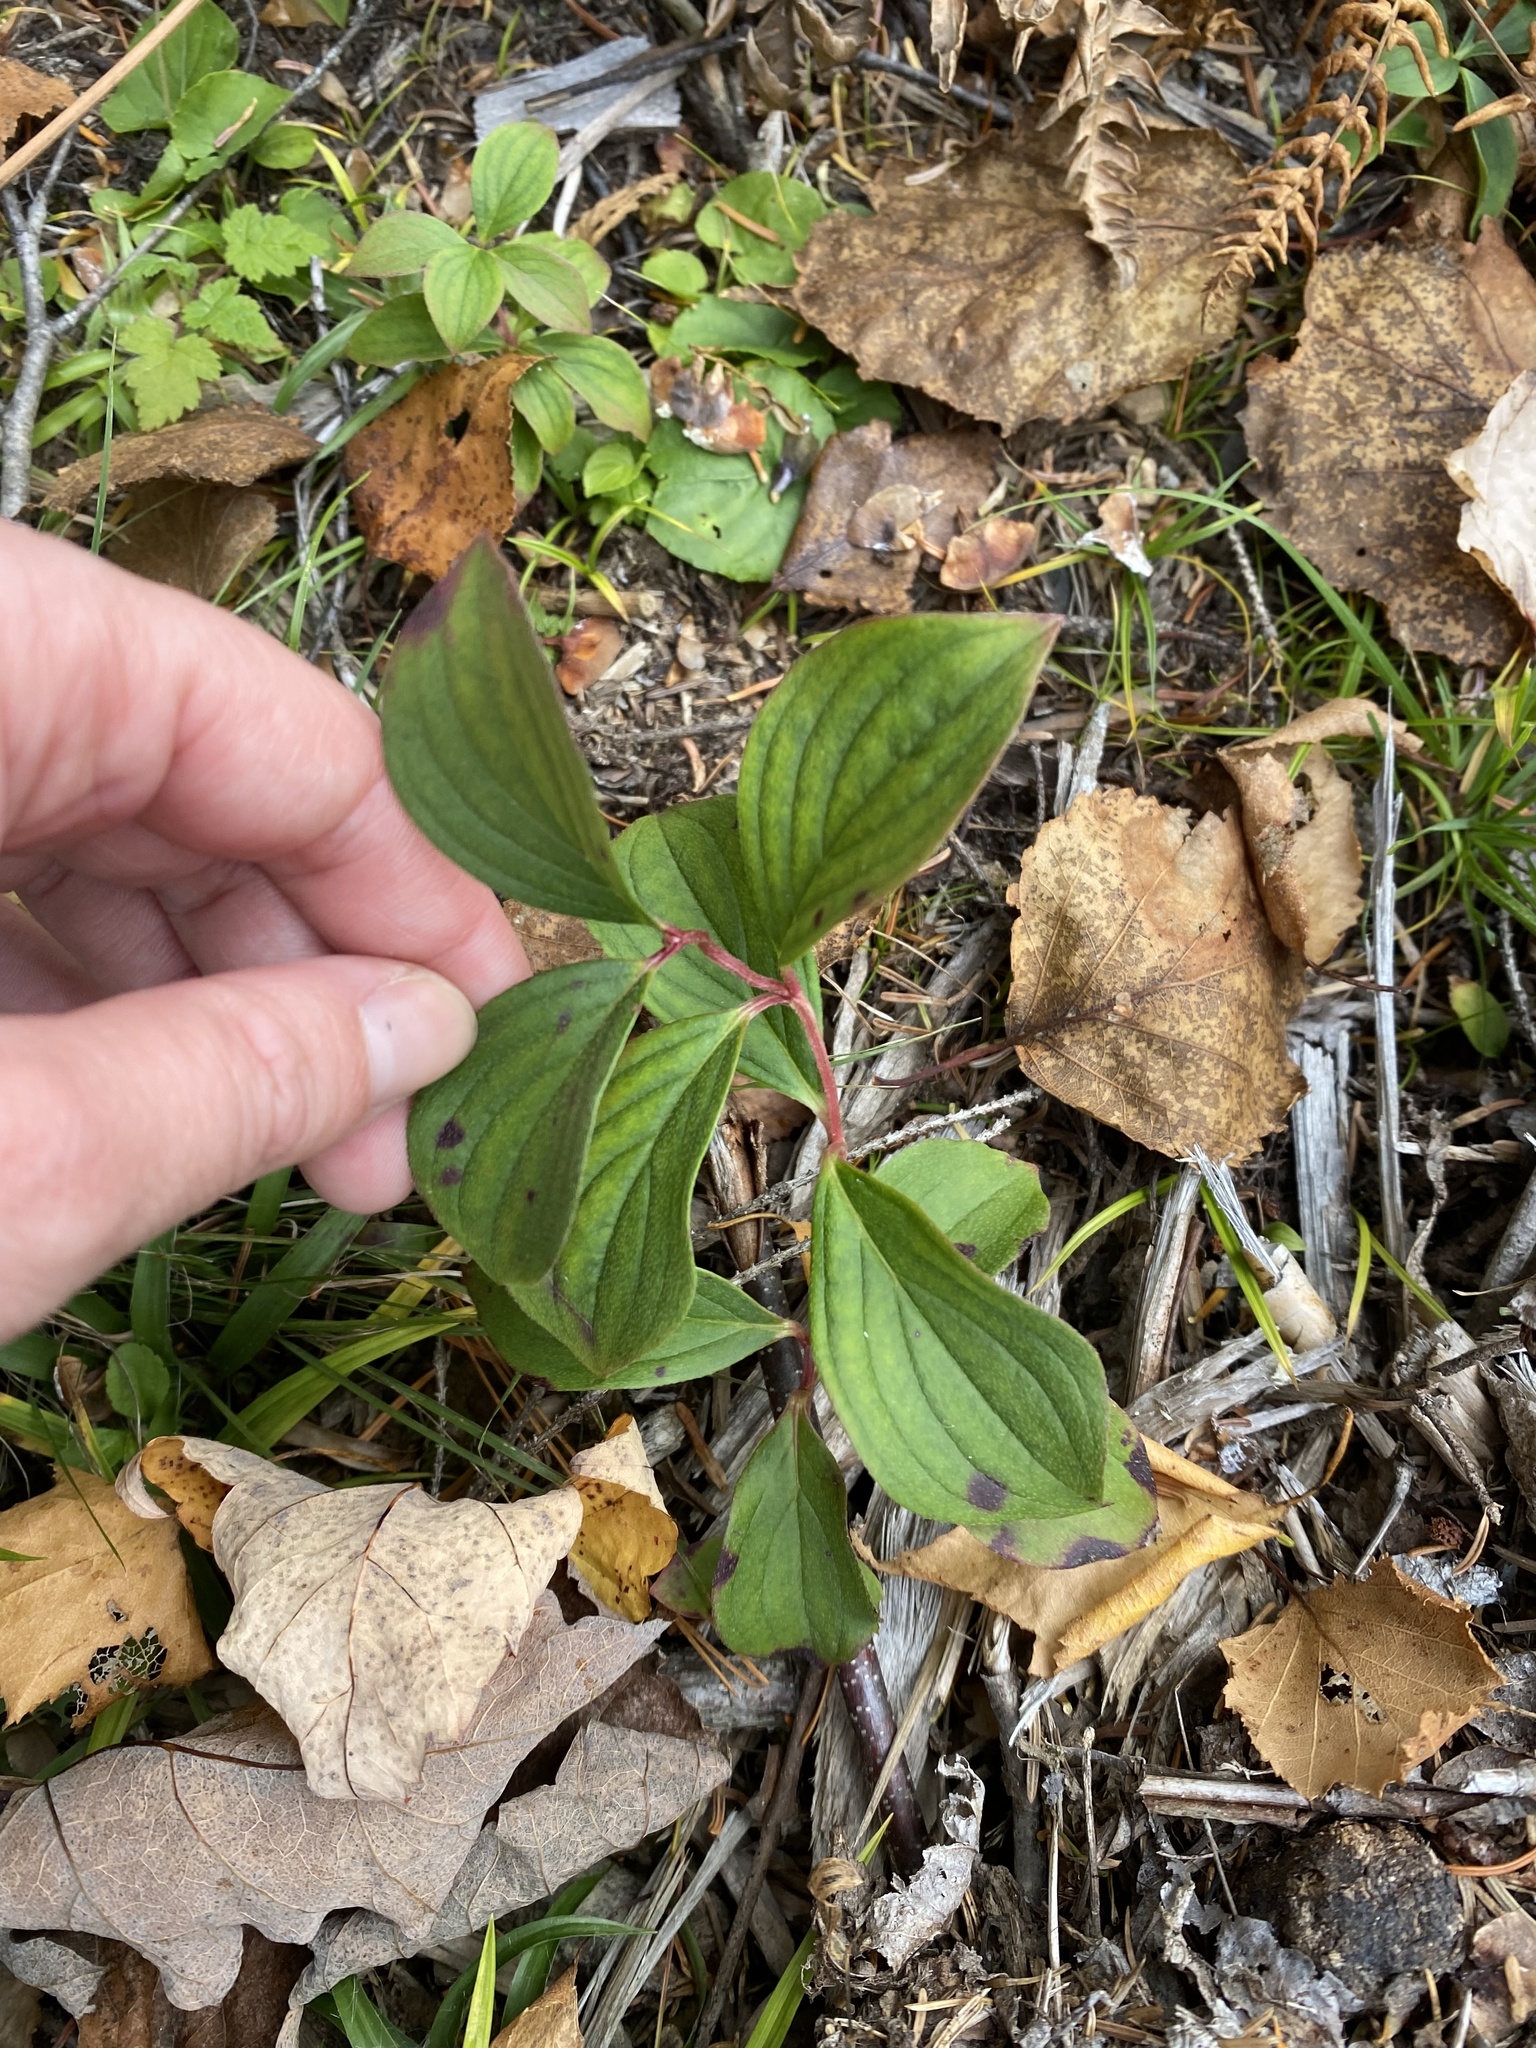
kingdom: Plantae
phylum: Tracheophyta
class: Magnoliopsida
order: Cornales
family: Cornaceae
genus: Cornus
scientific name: Cornus canadensis
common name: Creeping dogwood
